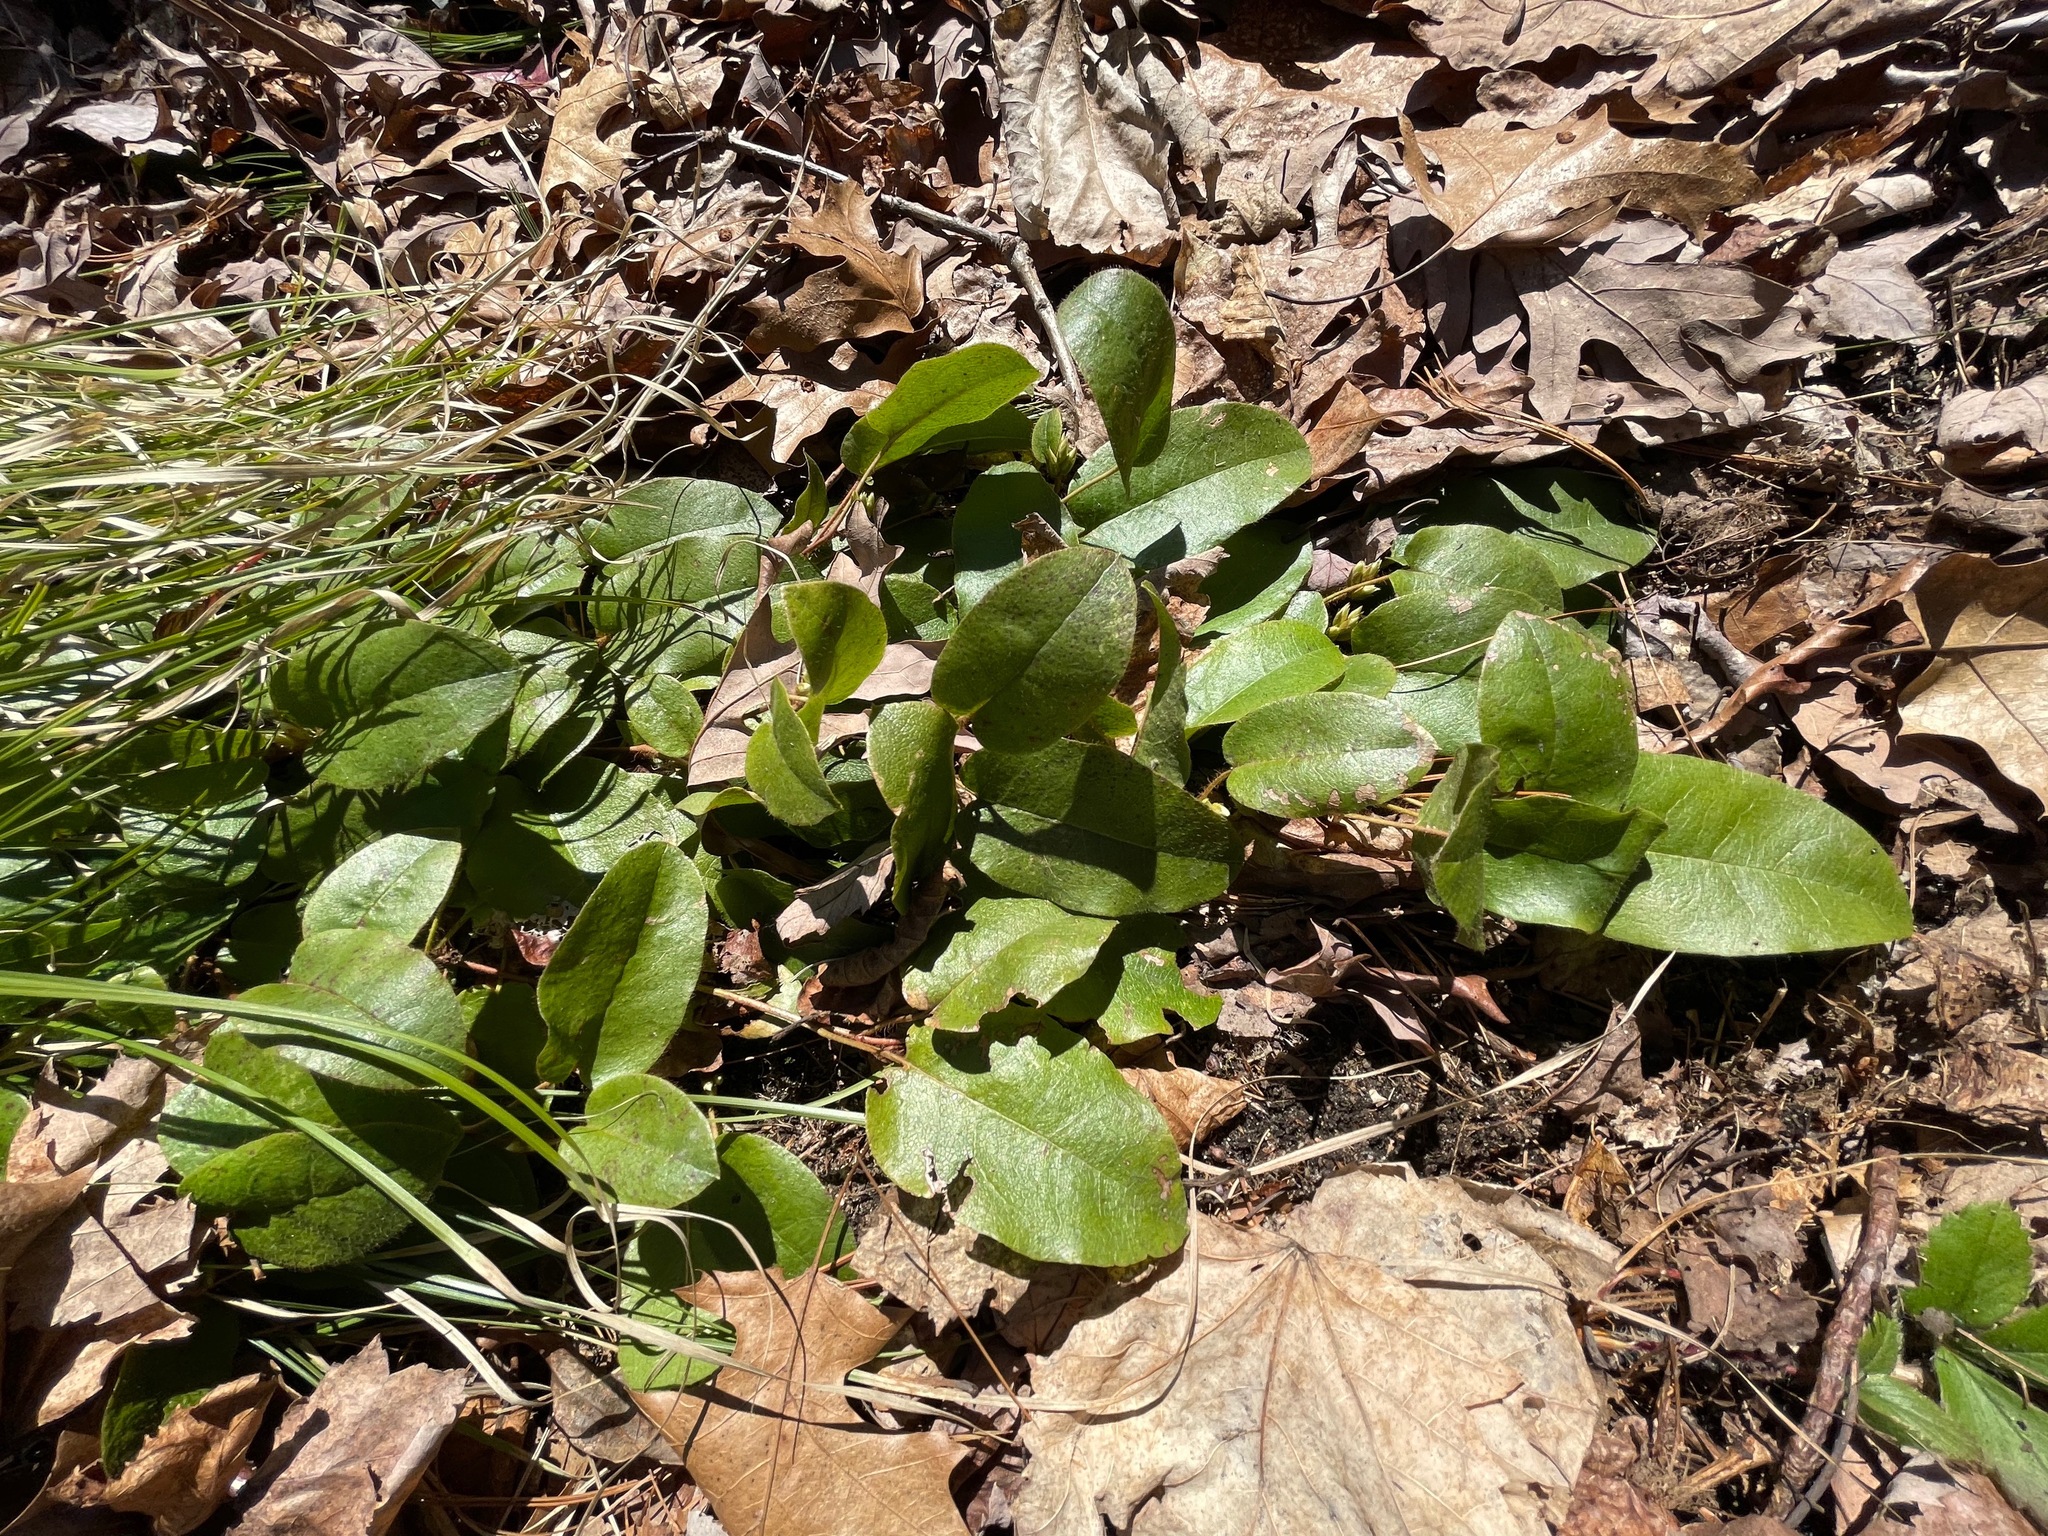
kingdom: Plantae
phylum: Tracheophyta
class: Magnoliopsida
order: Ericales
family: Ericaceae
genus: Epigaea
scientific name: Epigaea repens
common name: Gravelroot
